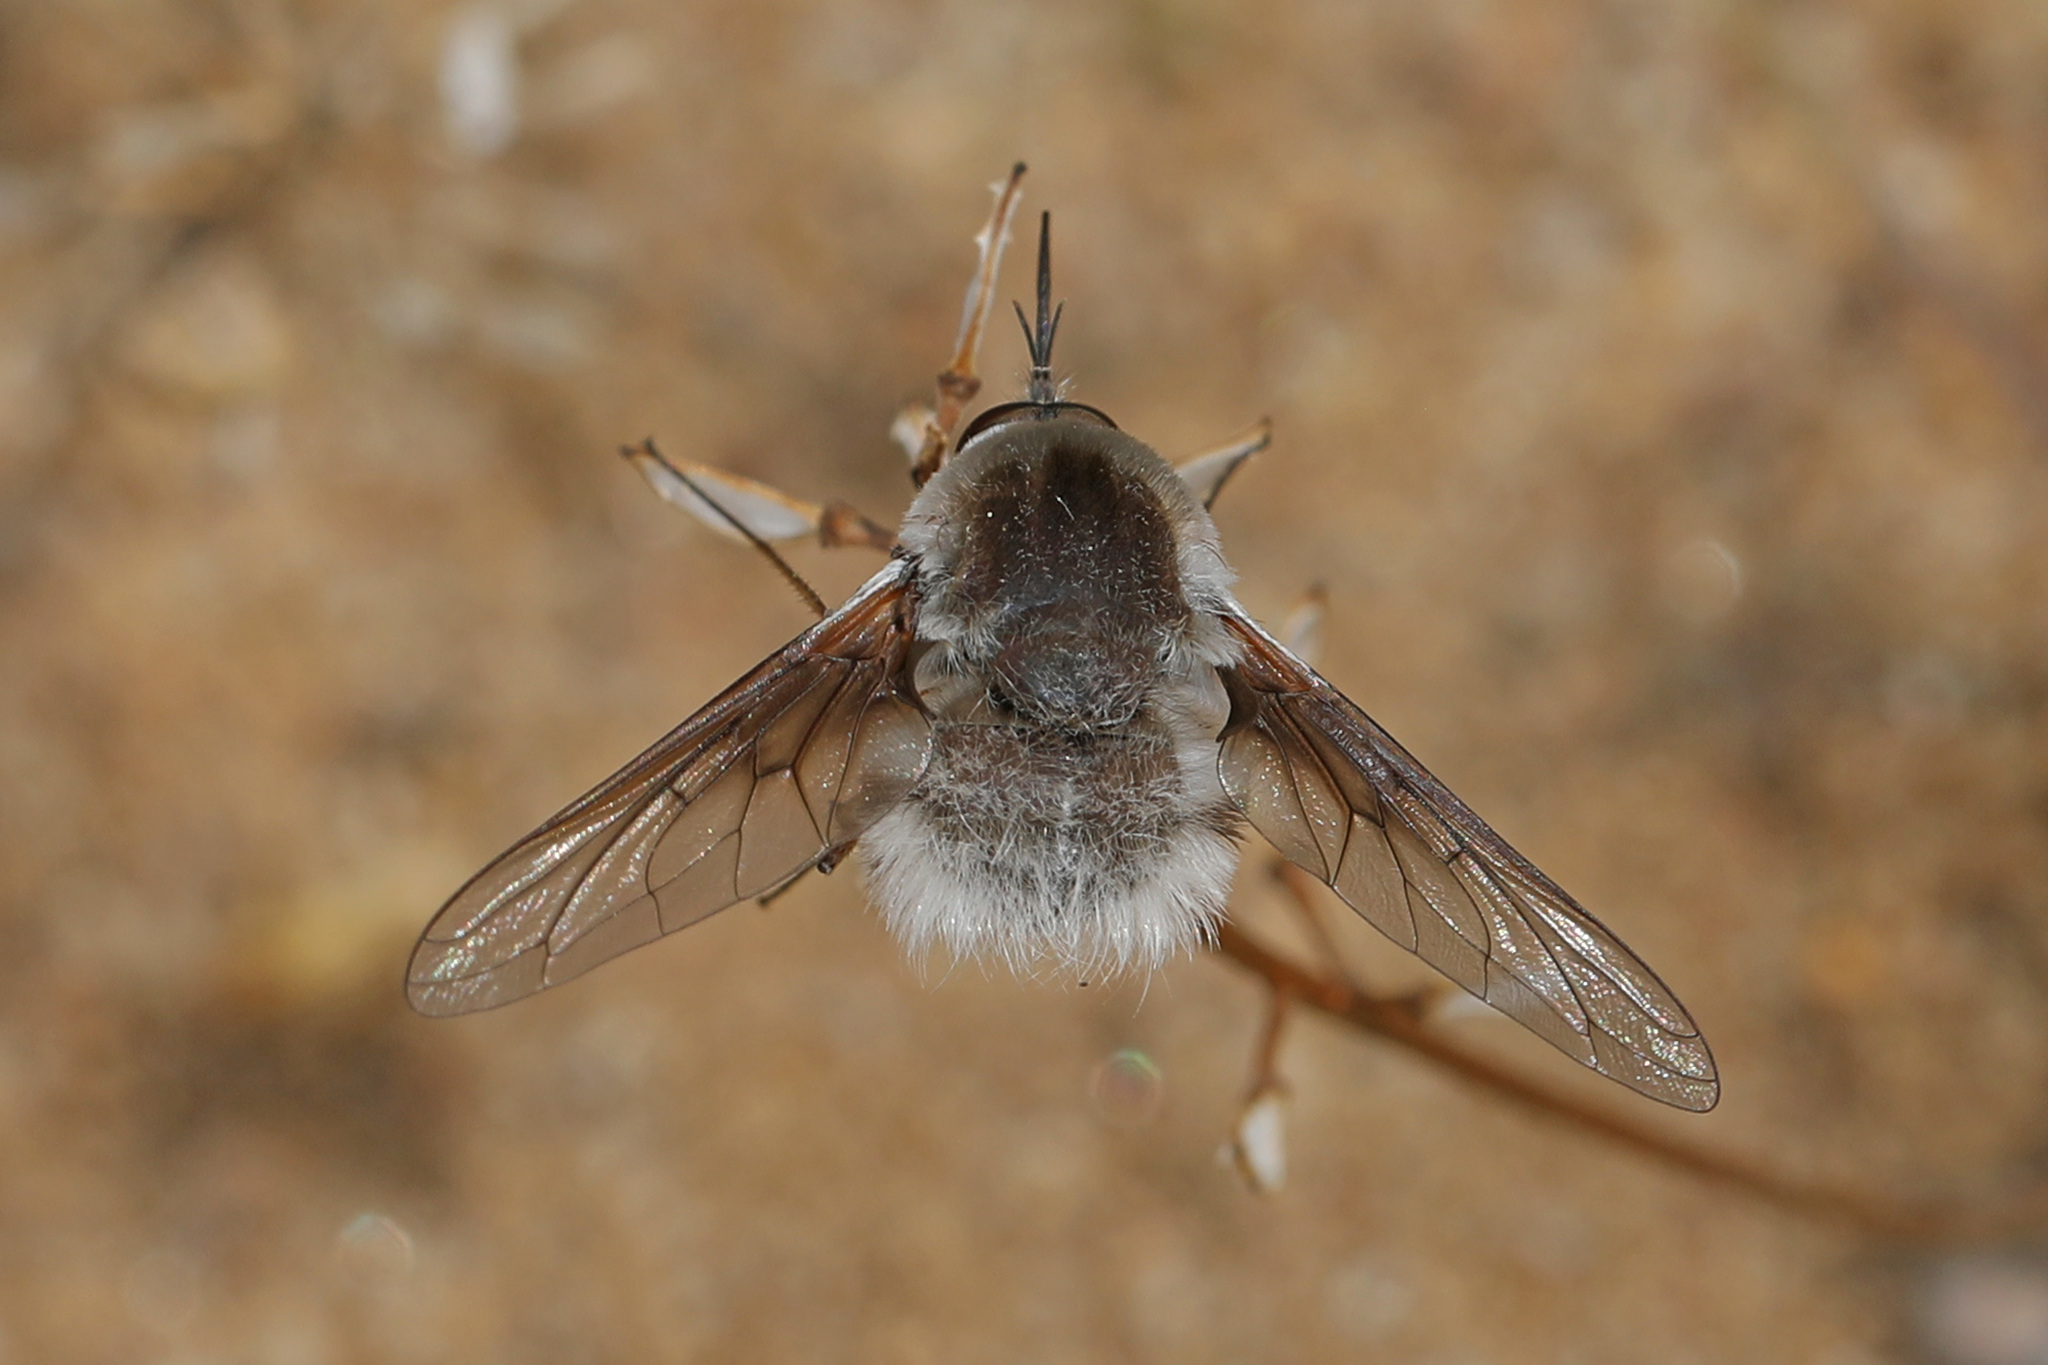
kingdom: Animalia
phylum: Arthropoda
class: Insecta
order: Diptera
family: Bombyliidae
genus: Bombylius
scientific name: Bombylius incanus
